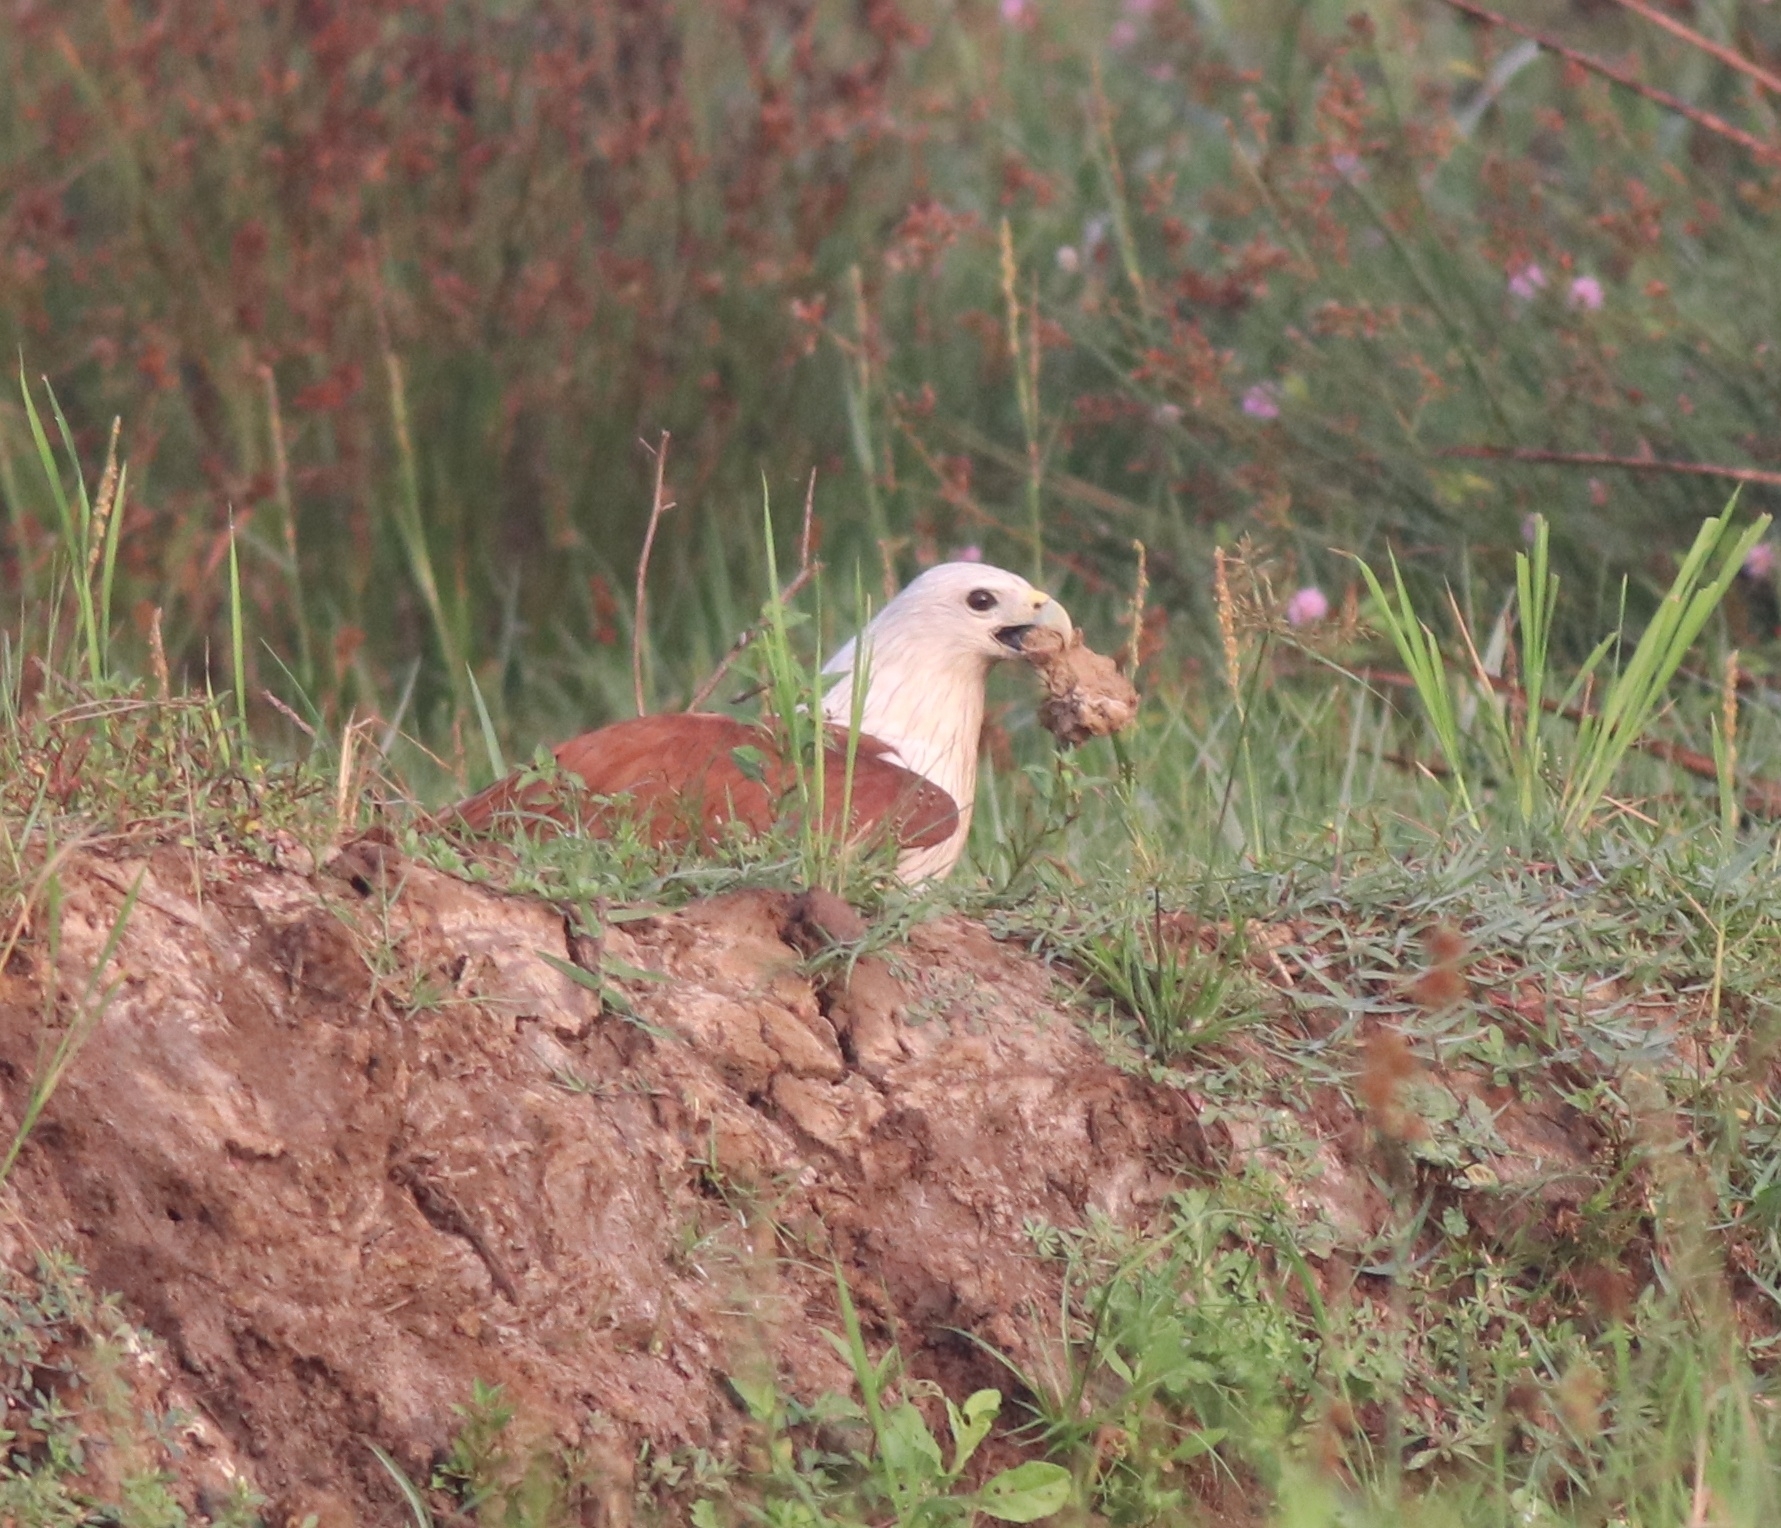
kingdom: Animalia
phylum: Chordata
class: Aves
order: Accipitriformes
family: Accipitridae
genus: Haliastur
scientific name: Haliastur indus
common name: Brahminy kite
